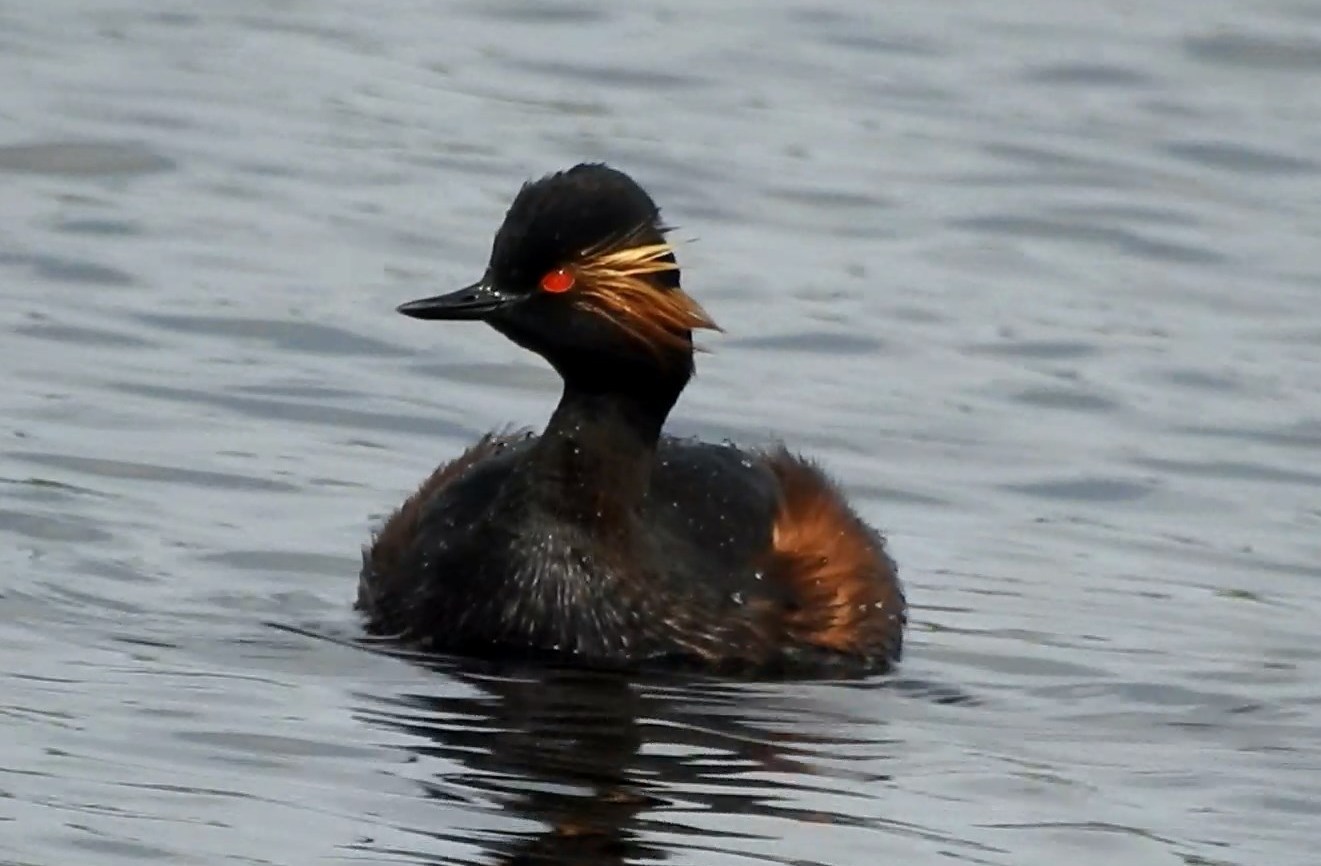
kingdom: Animalia
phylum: Chordata
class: Aves
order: Podicipediformes
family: Podicipedidae
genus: Podiceps
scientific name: Podiceps nigricollis
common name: Black-necked grebe
